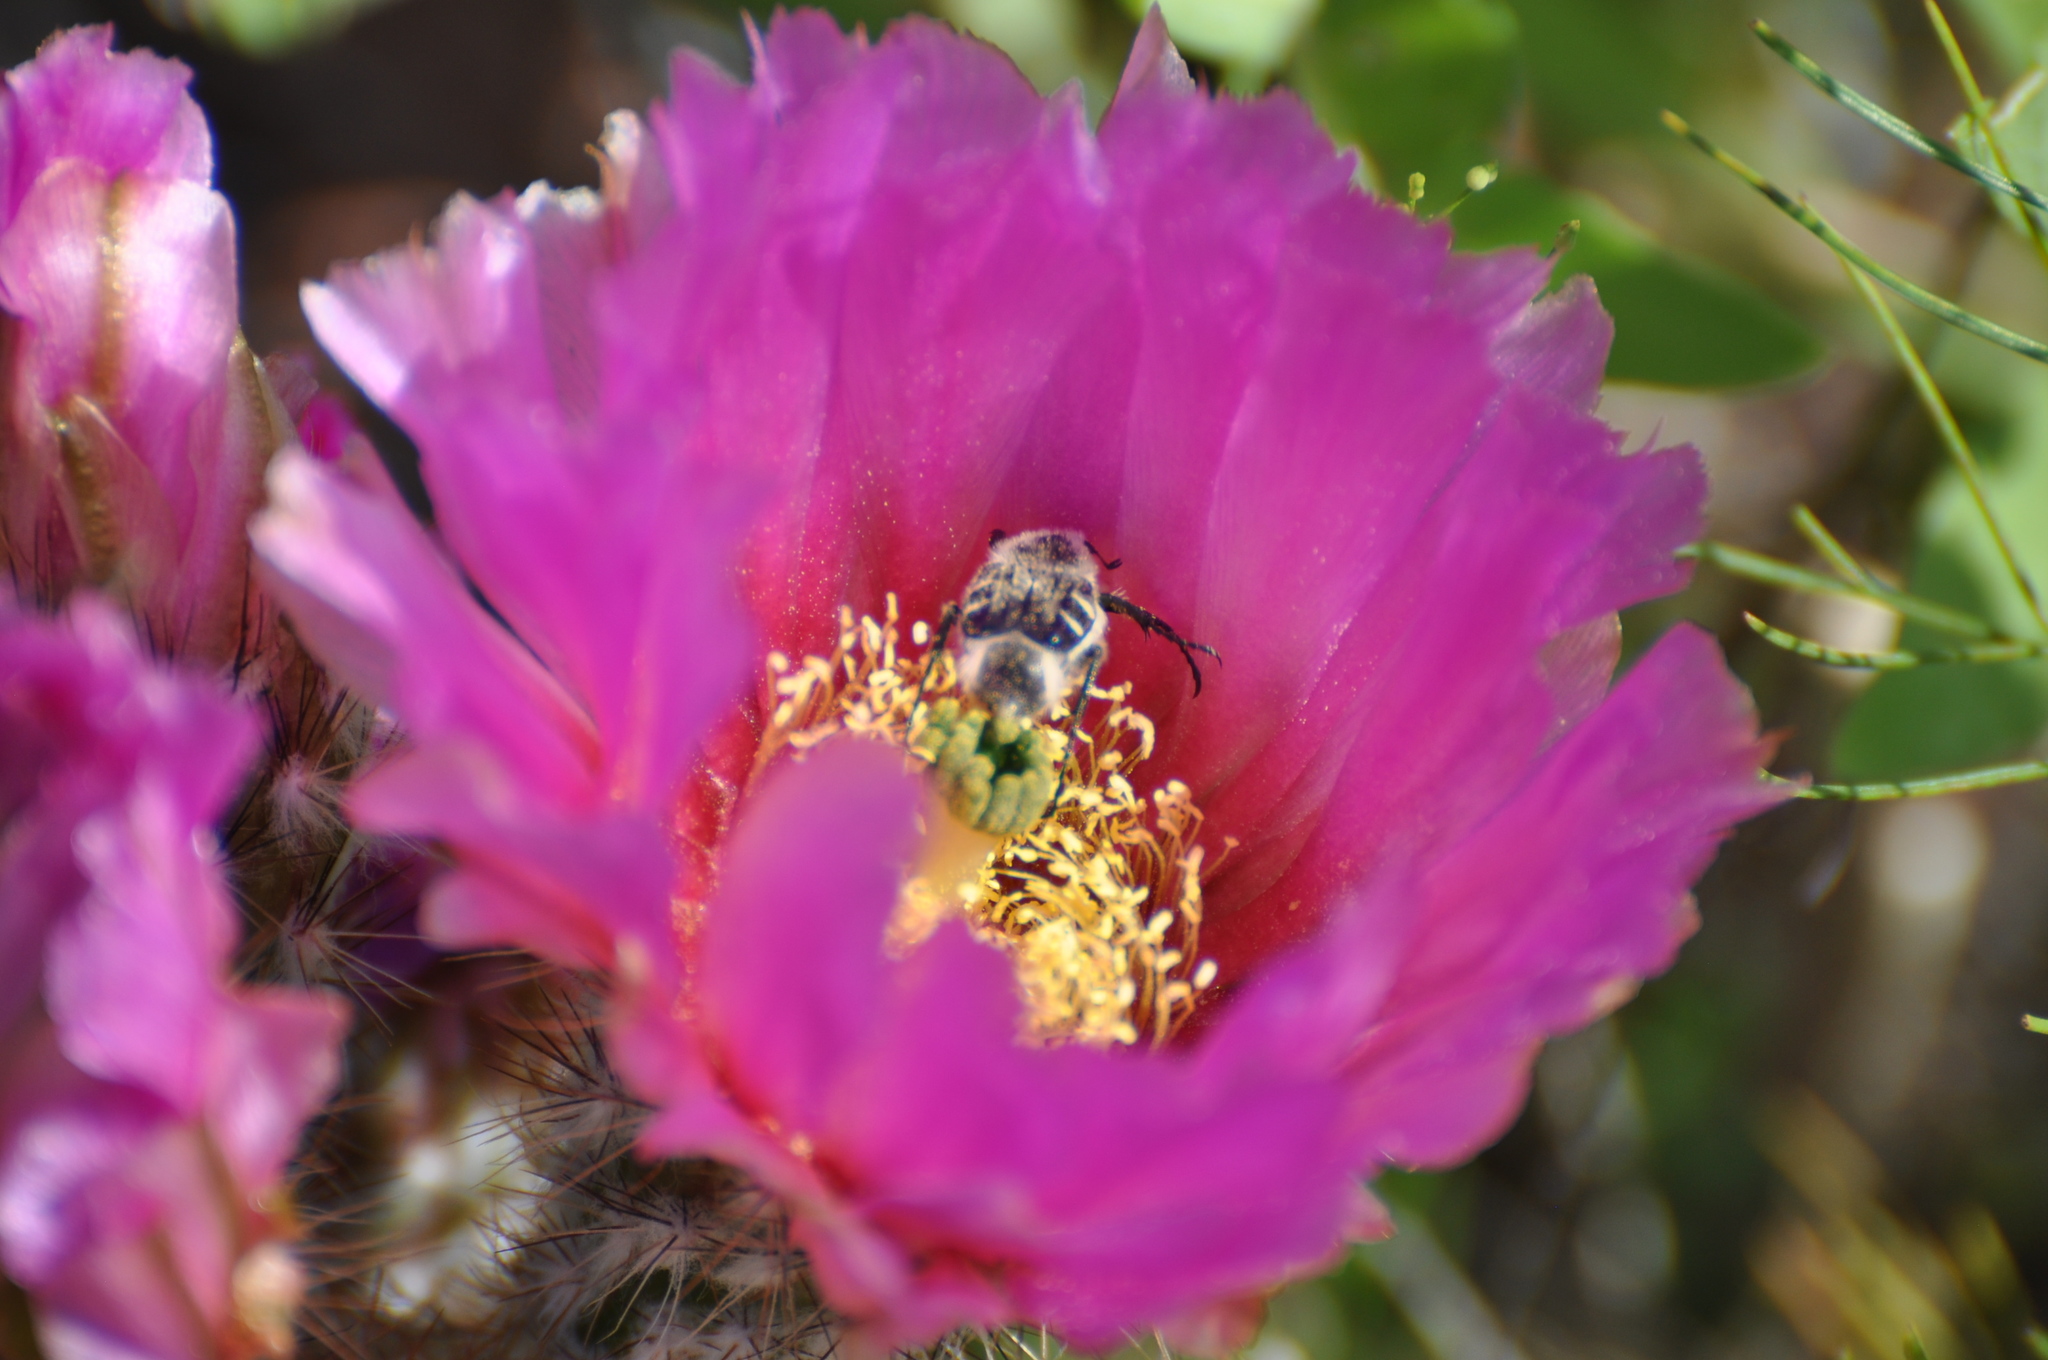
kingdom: Animalia
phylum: Arthropoda
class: Insecta
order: Coleoptera
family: Scarabaeidae
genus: Trichiotinus
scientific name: Trichiotinus texanus
